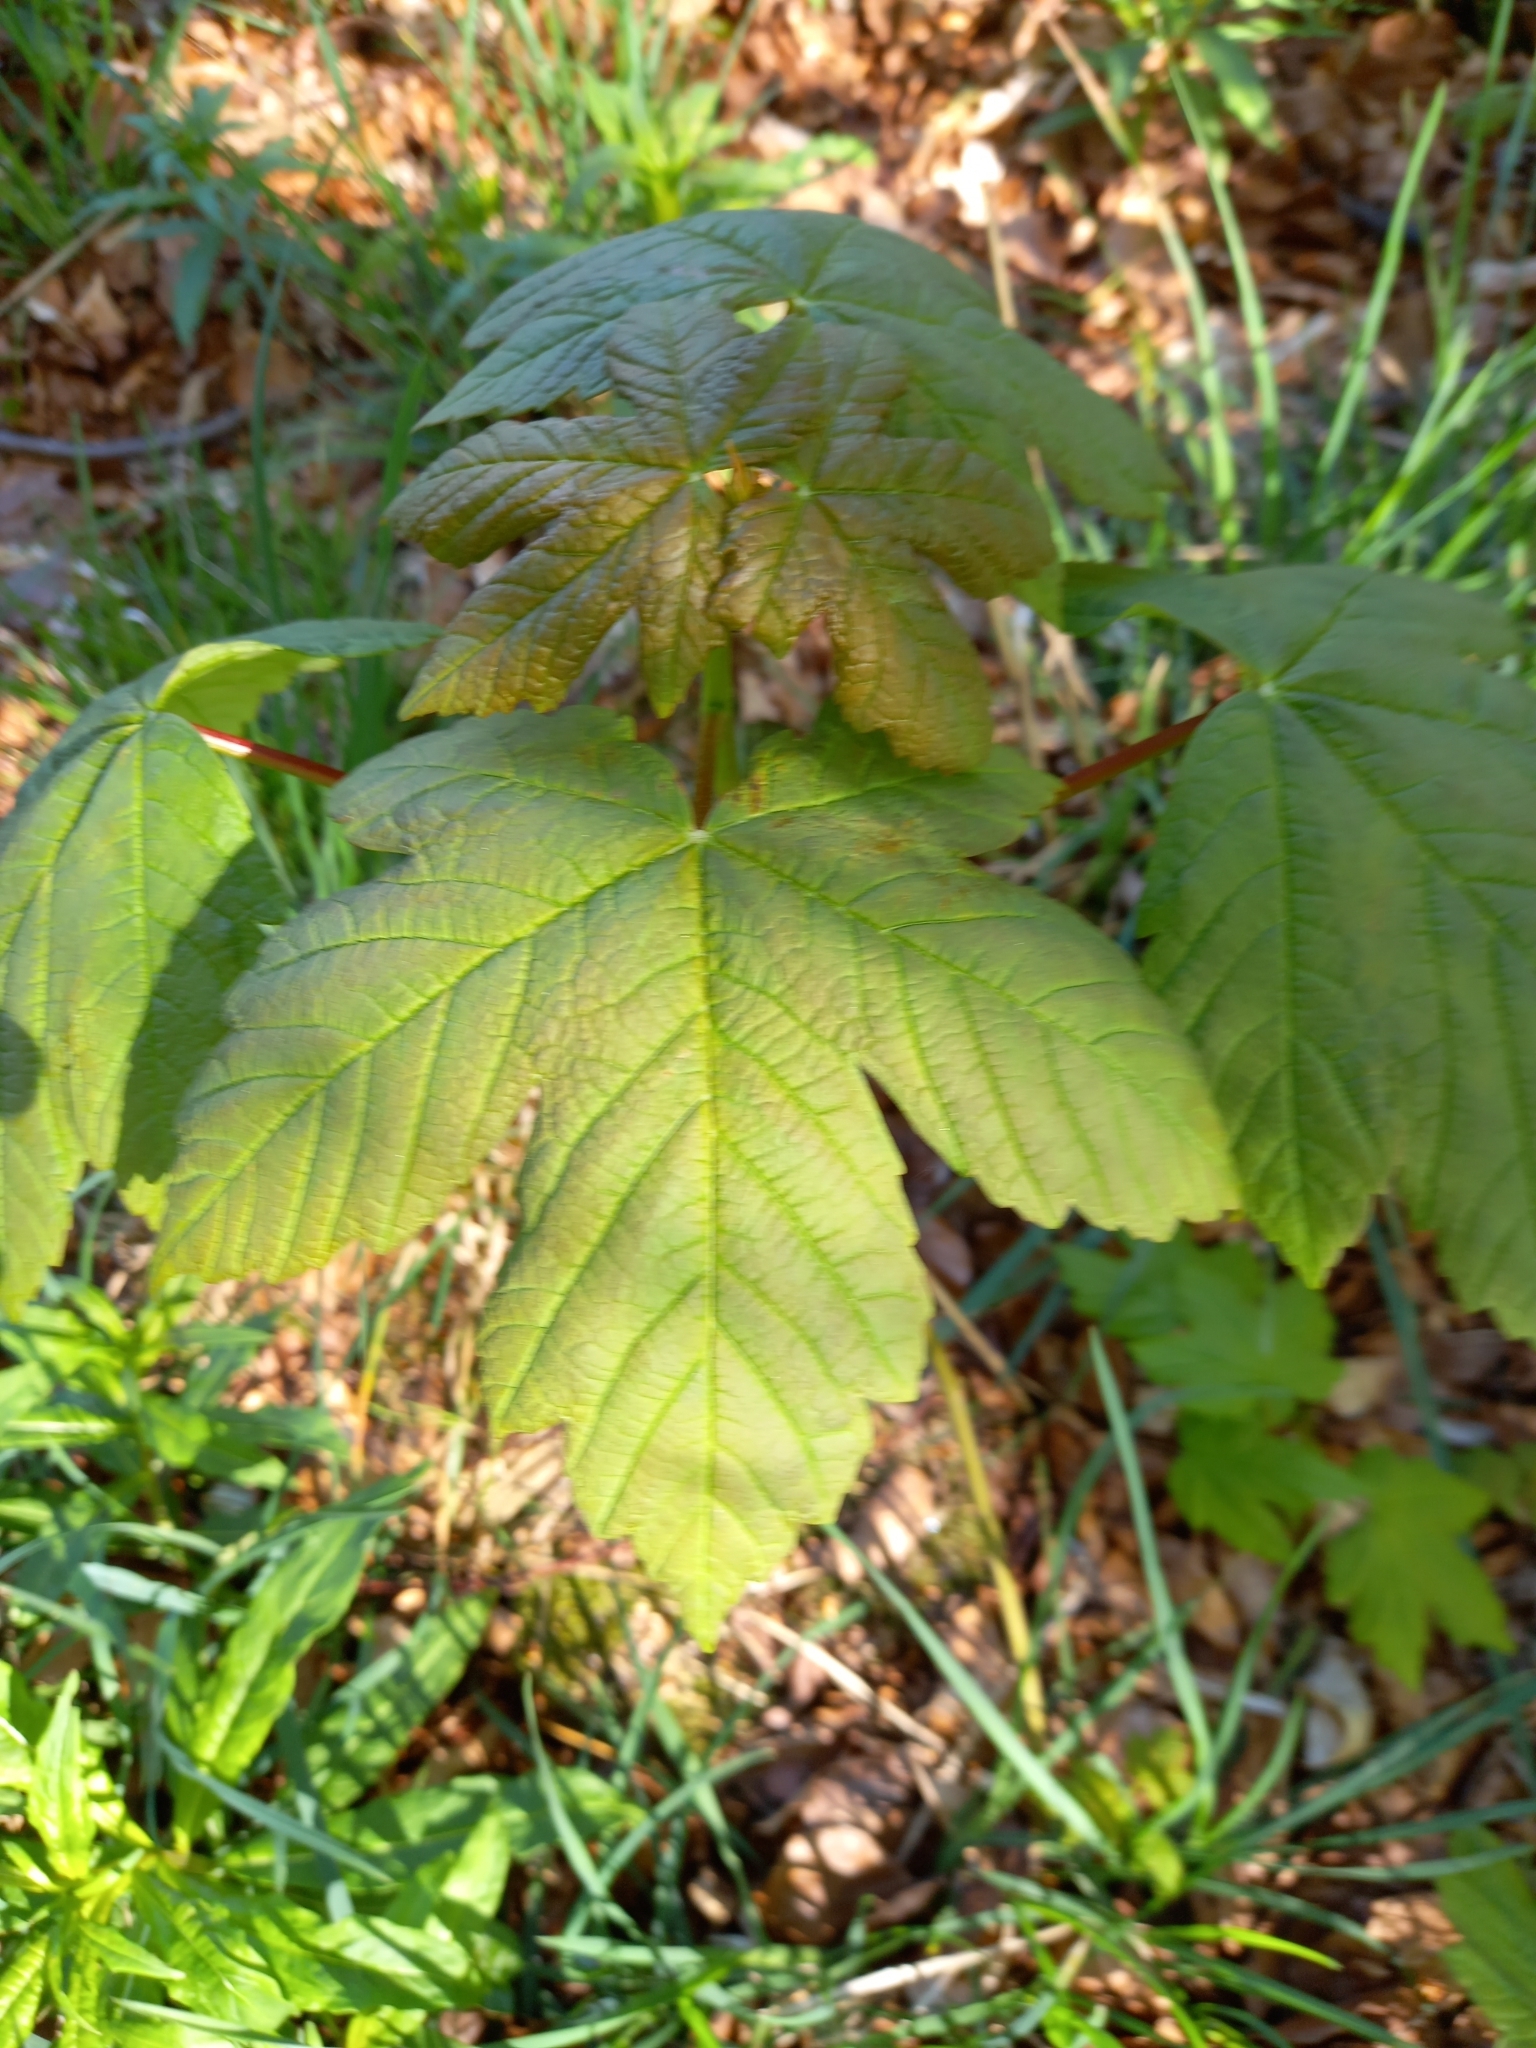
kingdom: Plantae
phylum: Tracheophyta
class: Magnoliopsida
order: Sapindales
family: Sapindaceae
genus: Acer
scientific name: Acer pseudoplatanus
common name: Sycamore
